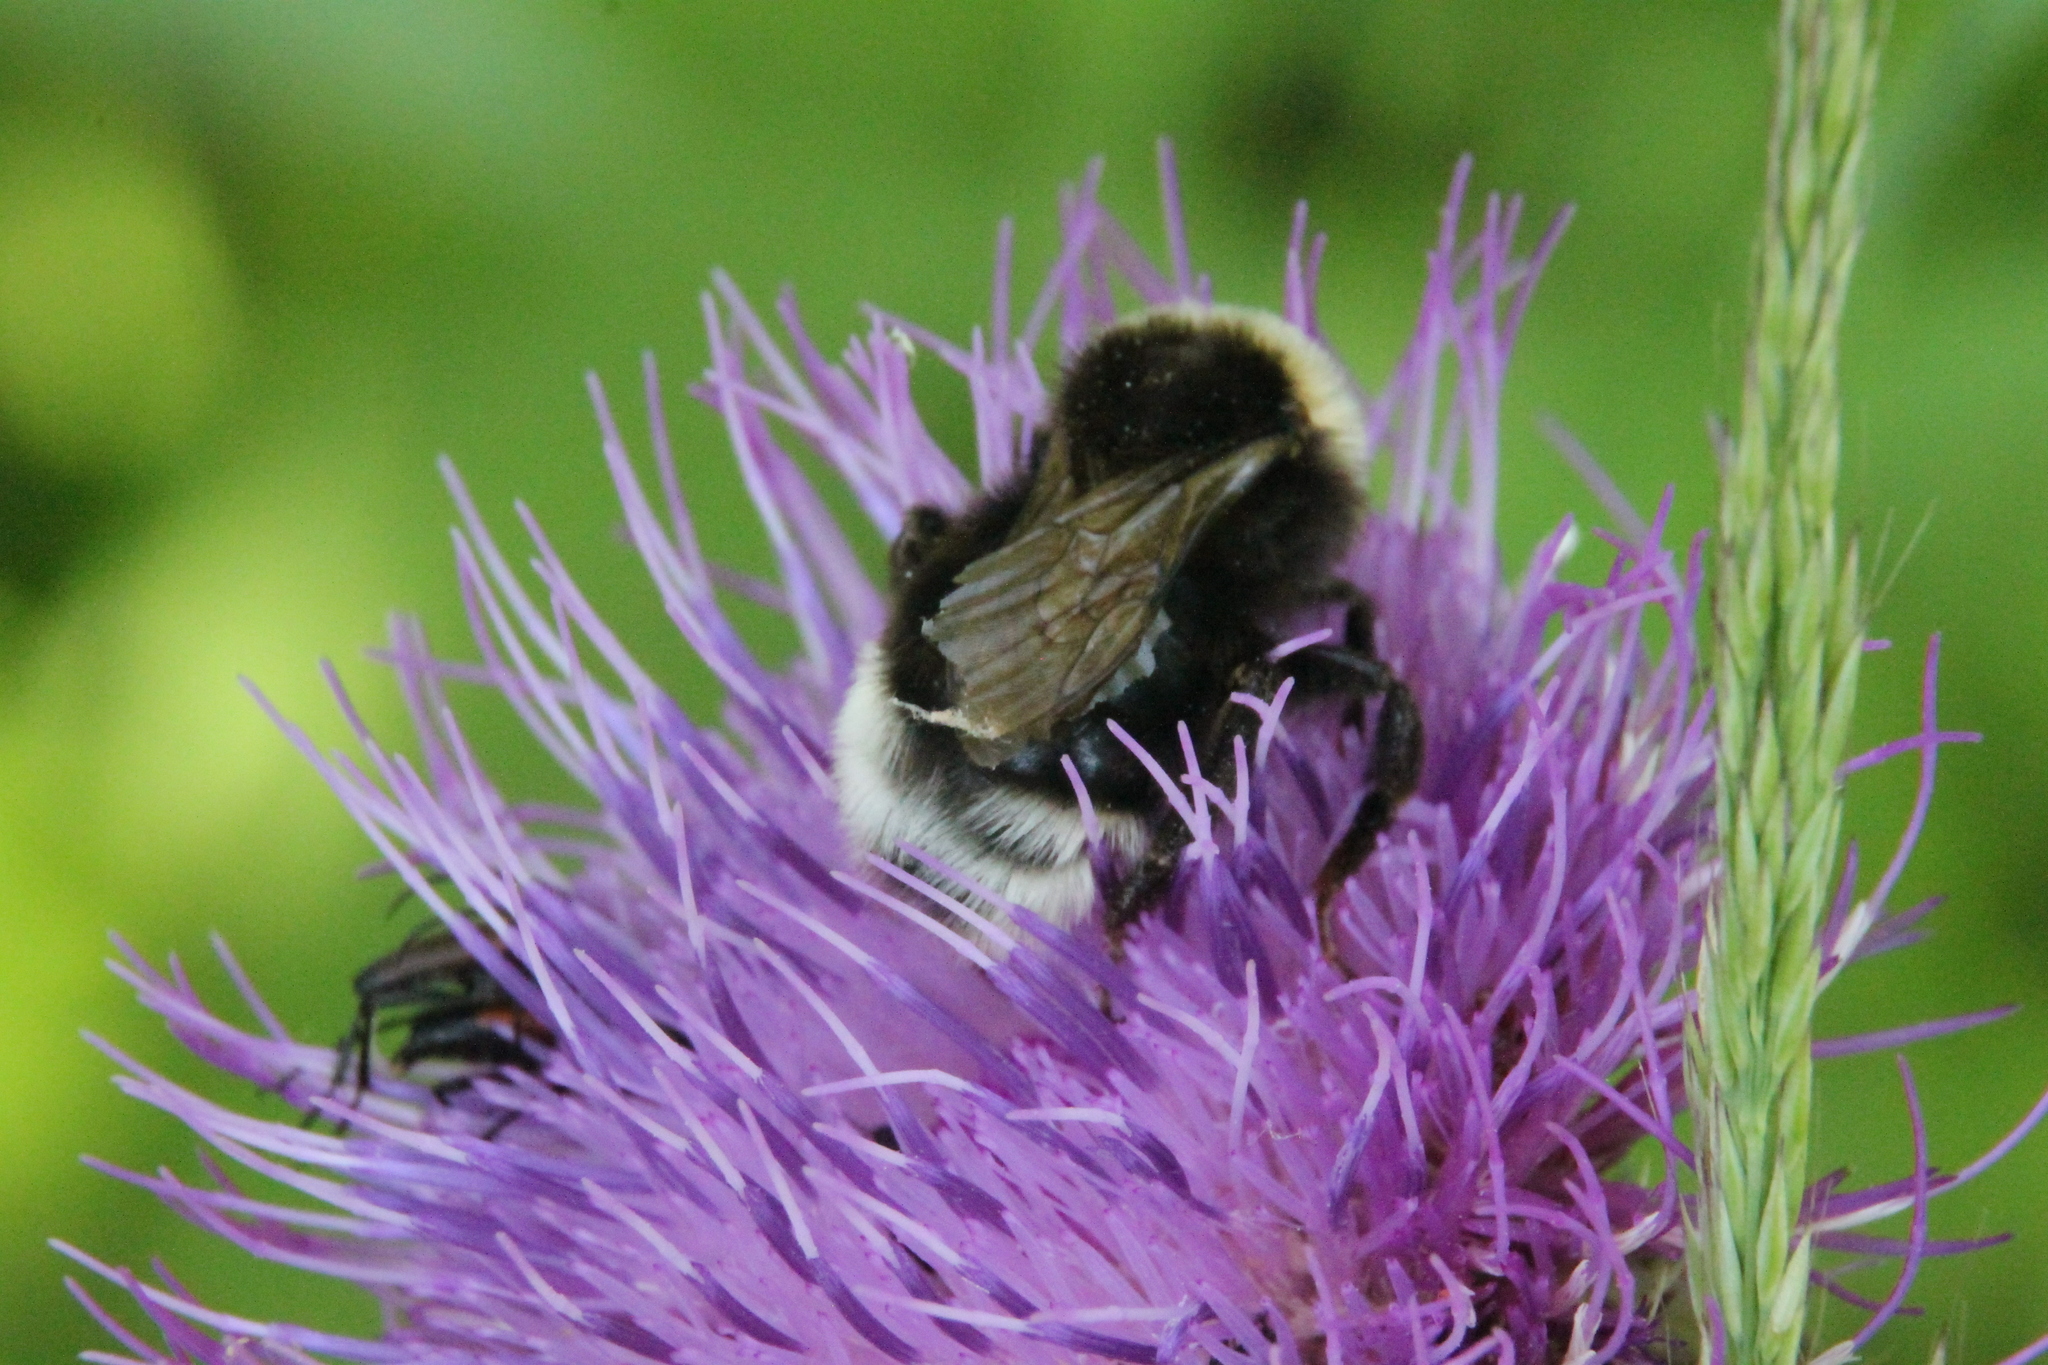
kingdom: Animalia
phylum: Arthropoda
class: Insecta
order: Hymenoptera
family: Apidae
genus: Bombus
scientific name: Bombus bohemicus
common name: Gypsy cuckoo bee
